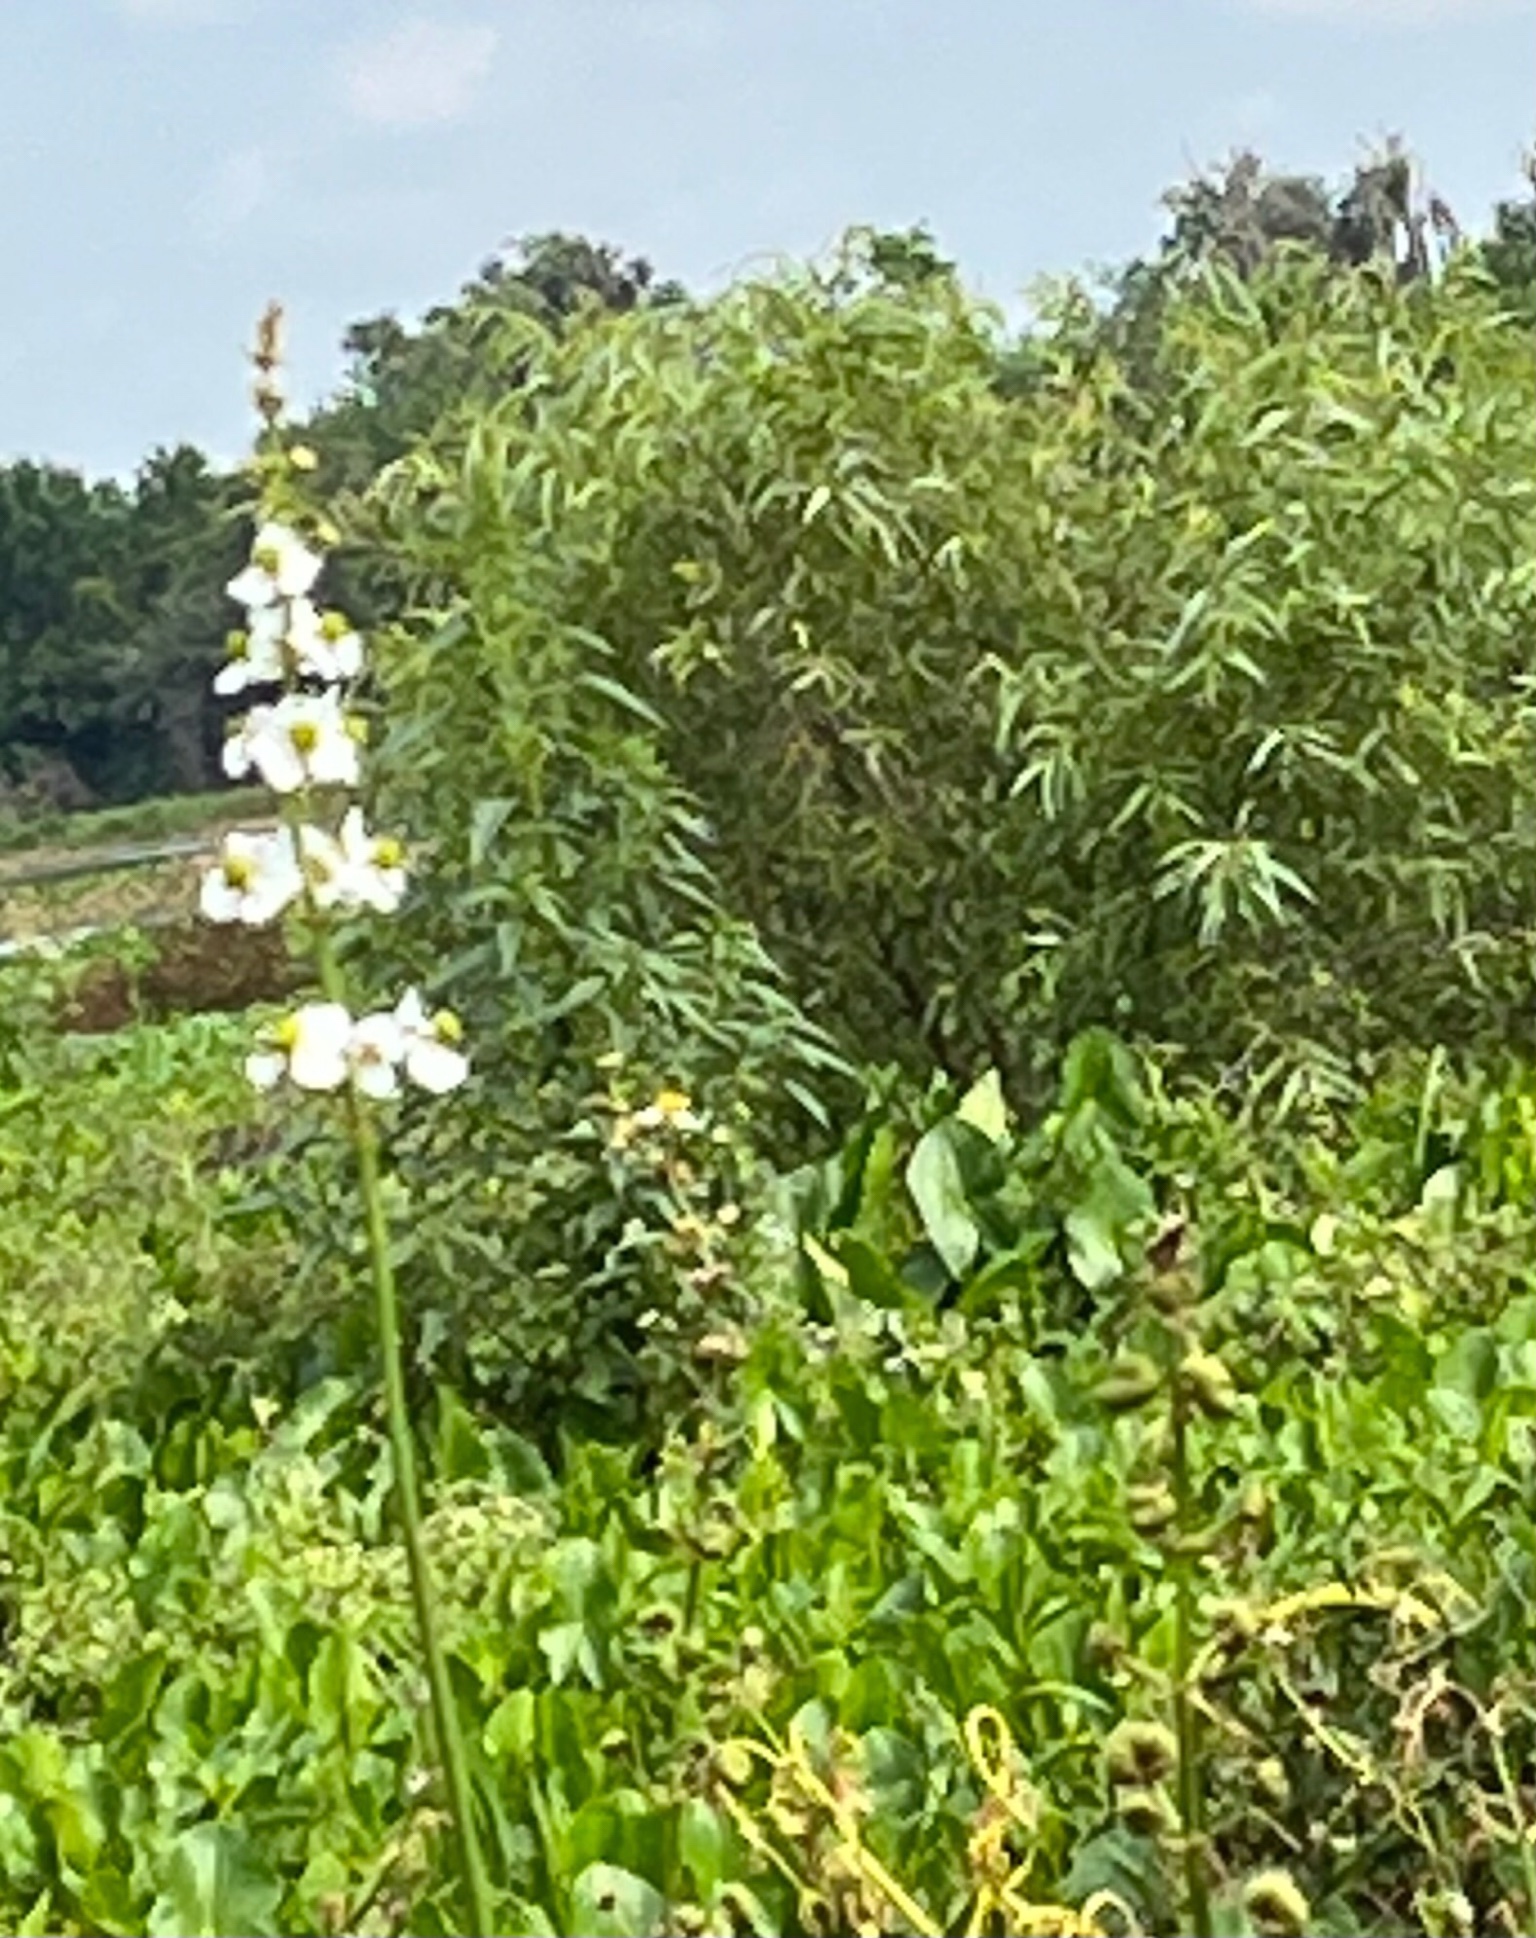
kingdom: Plantae
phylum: Tracheophyta
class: Liliopsida
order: Alismatales
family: Alismataceae
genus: Sagittaria
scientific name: Sagittaria latifolia
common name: Duck-potato
